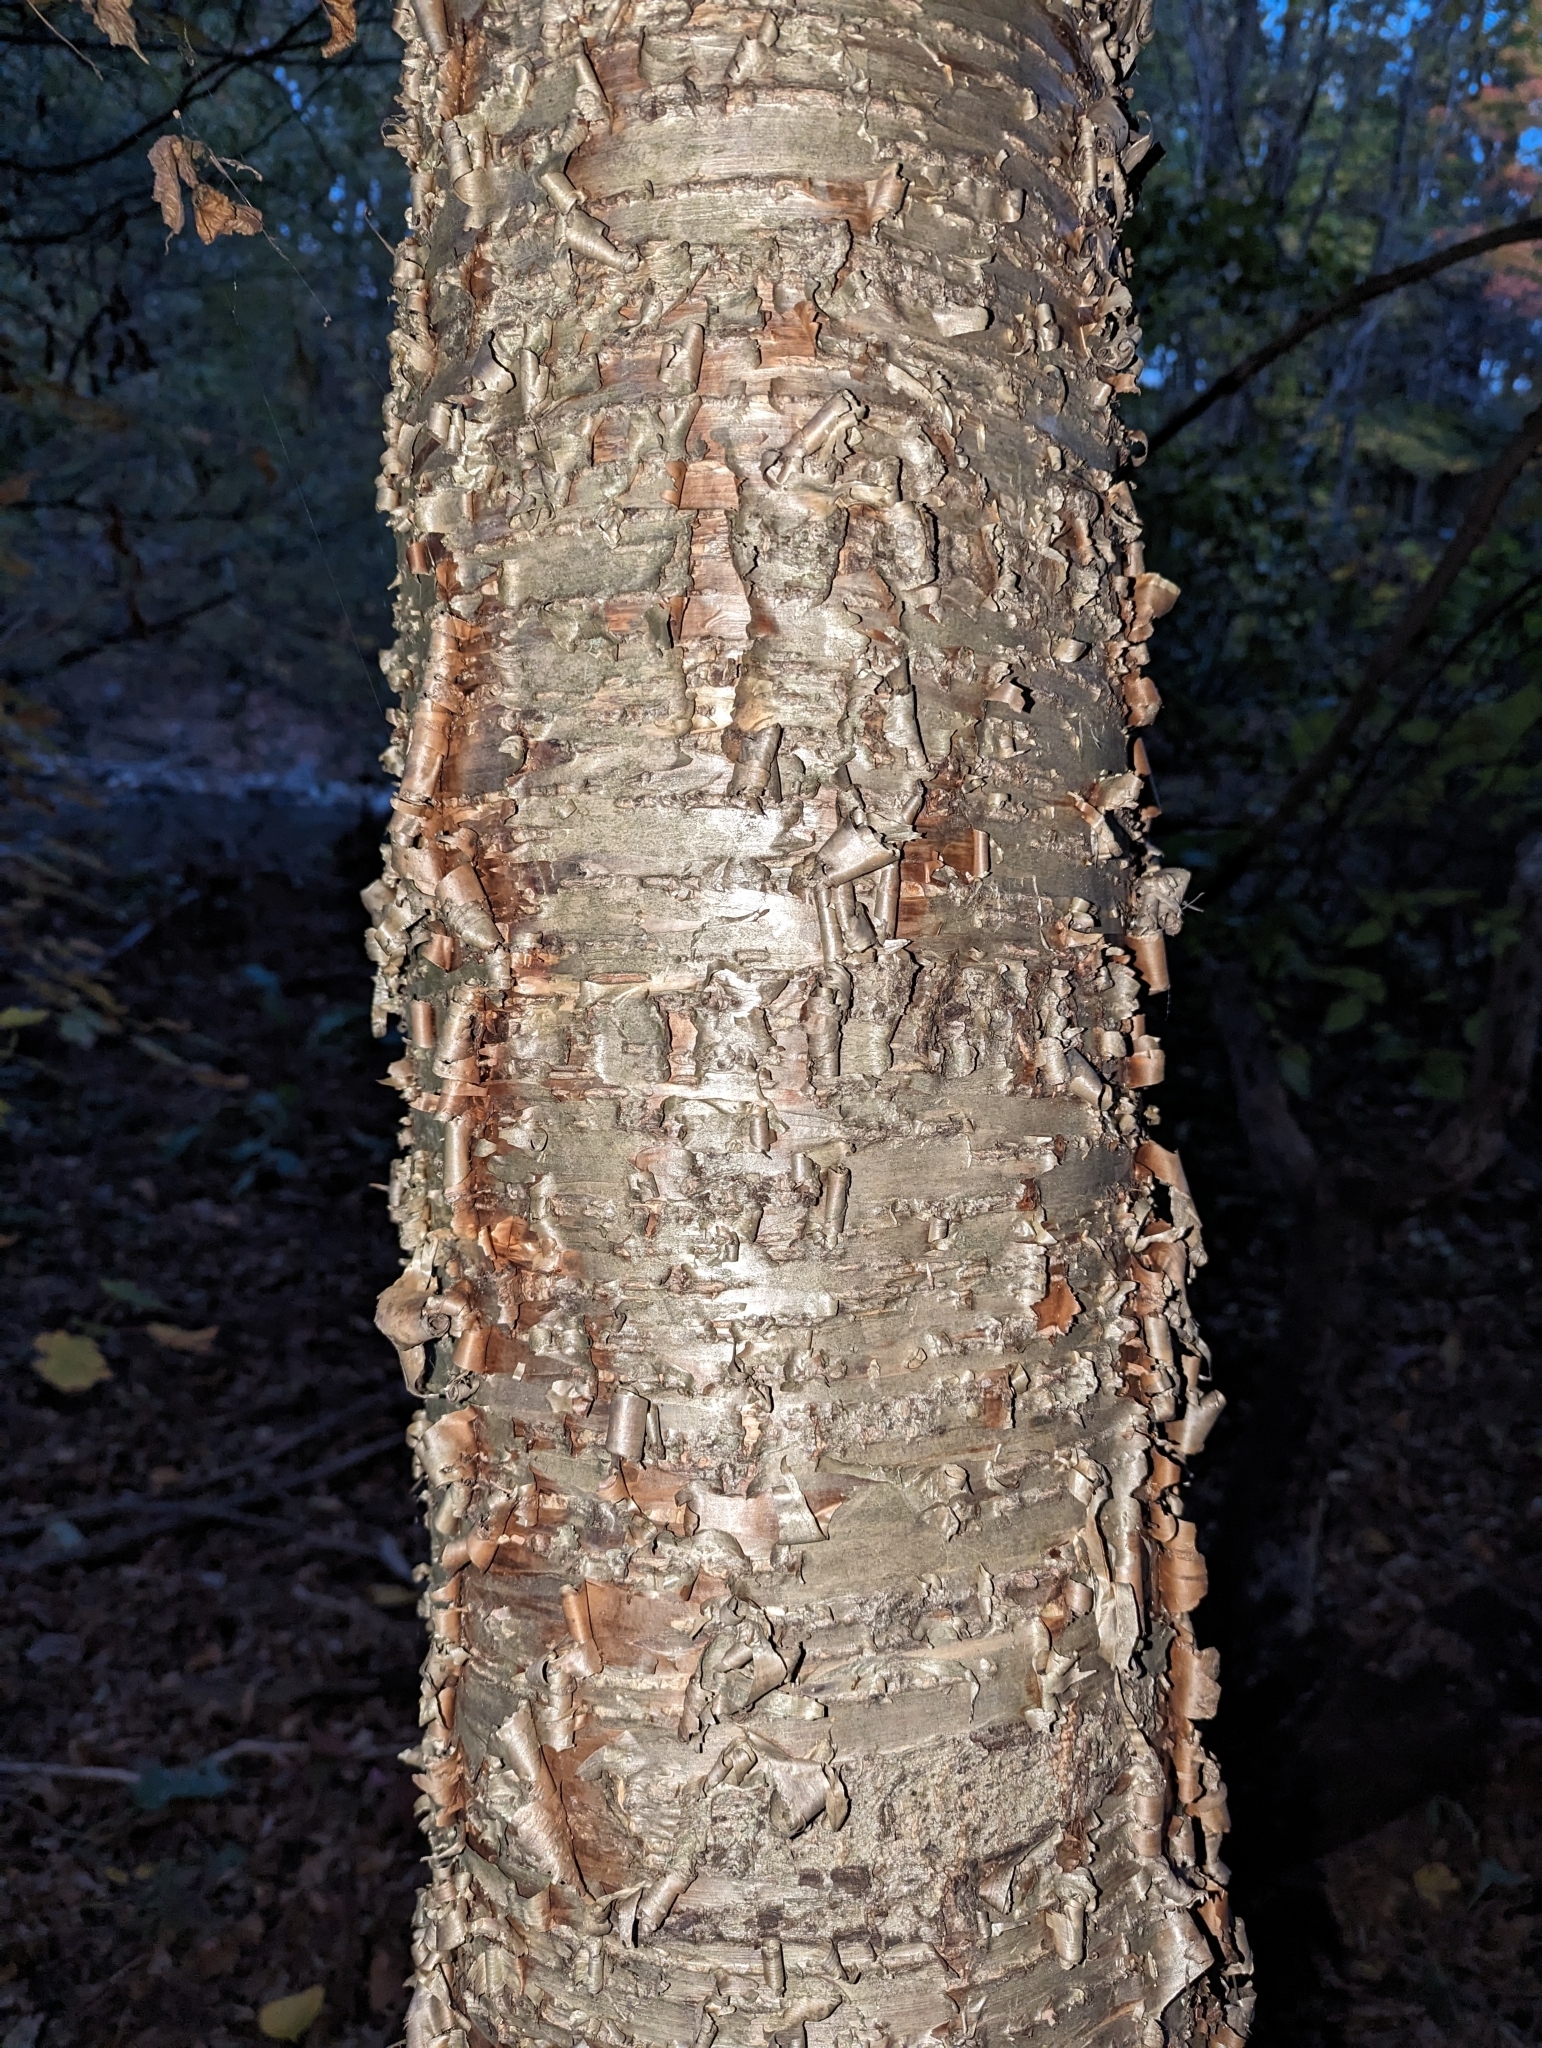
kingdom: Plantae
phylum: Tracheophyta
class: Magnoliopsida
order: Fagales
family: Betulaceae
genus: Betula
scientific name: Betula alleghaniensis
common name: Yellow birch
